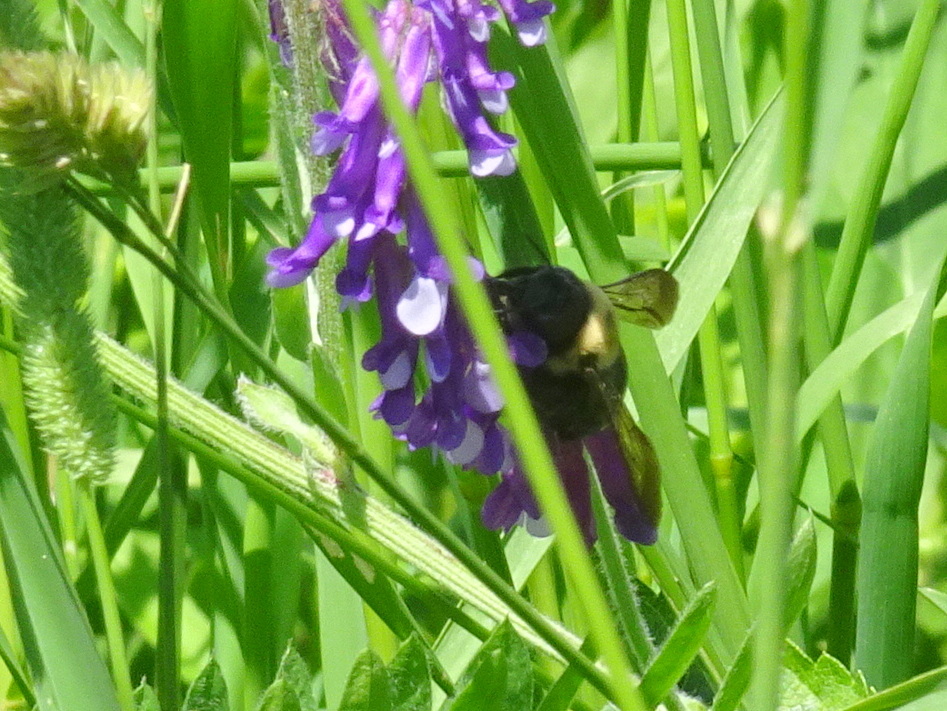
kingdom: Animalia
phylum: Arthropoda
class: Insecta
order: Hymenoptera
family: Apidae
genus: Xylocopa
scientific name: Xylocopa virginica
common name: Carpenter bee
